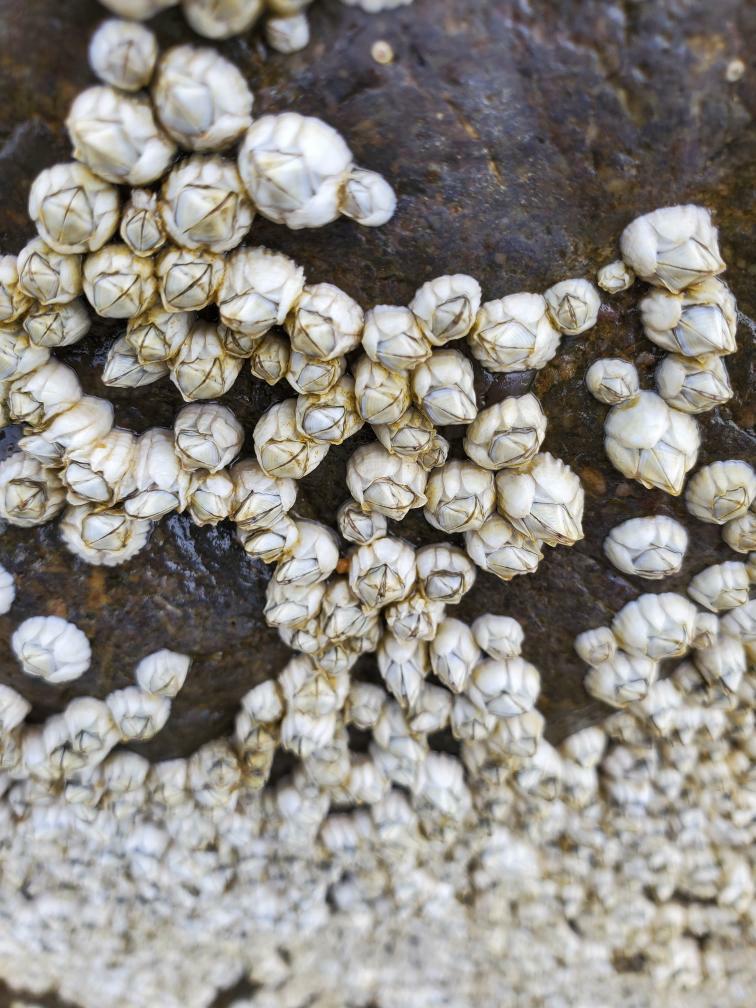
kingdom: Animalia
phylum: Arthropoda
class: Maxillopoda
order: Sessilia
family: Archaeobalanidae
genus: Semibalanus
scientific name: Semibalanus balanoides
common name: Acorn barnacle
